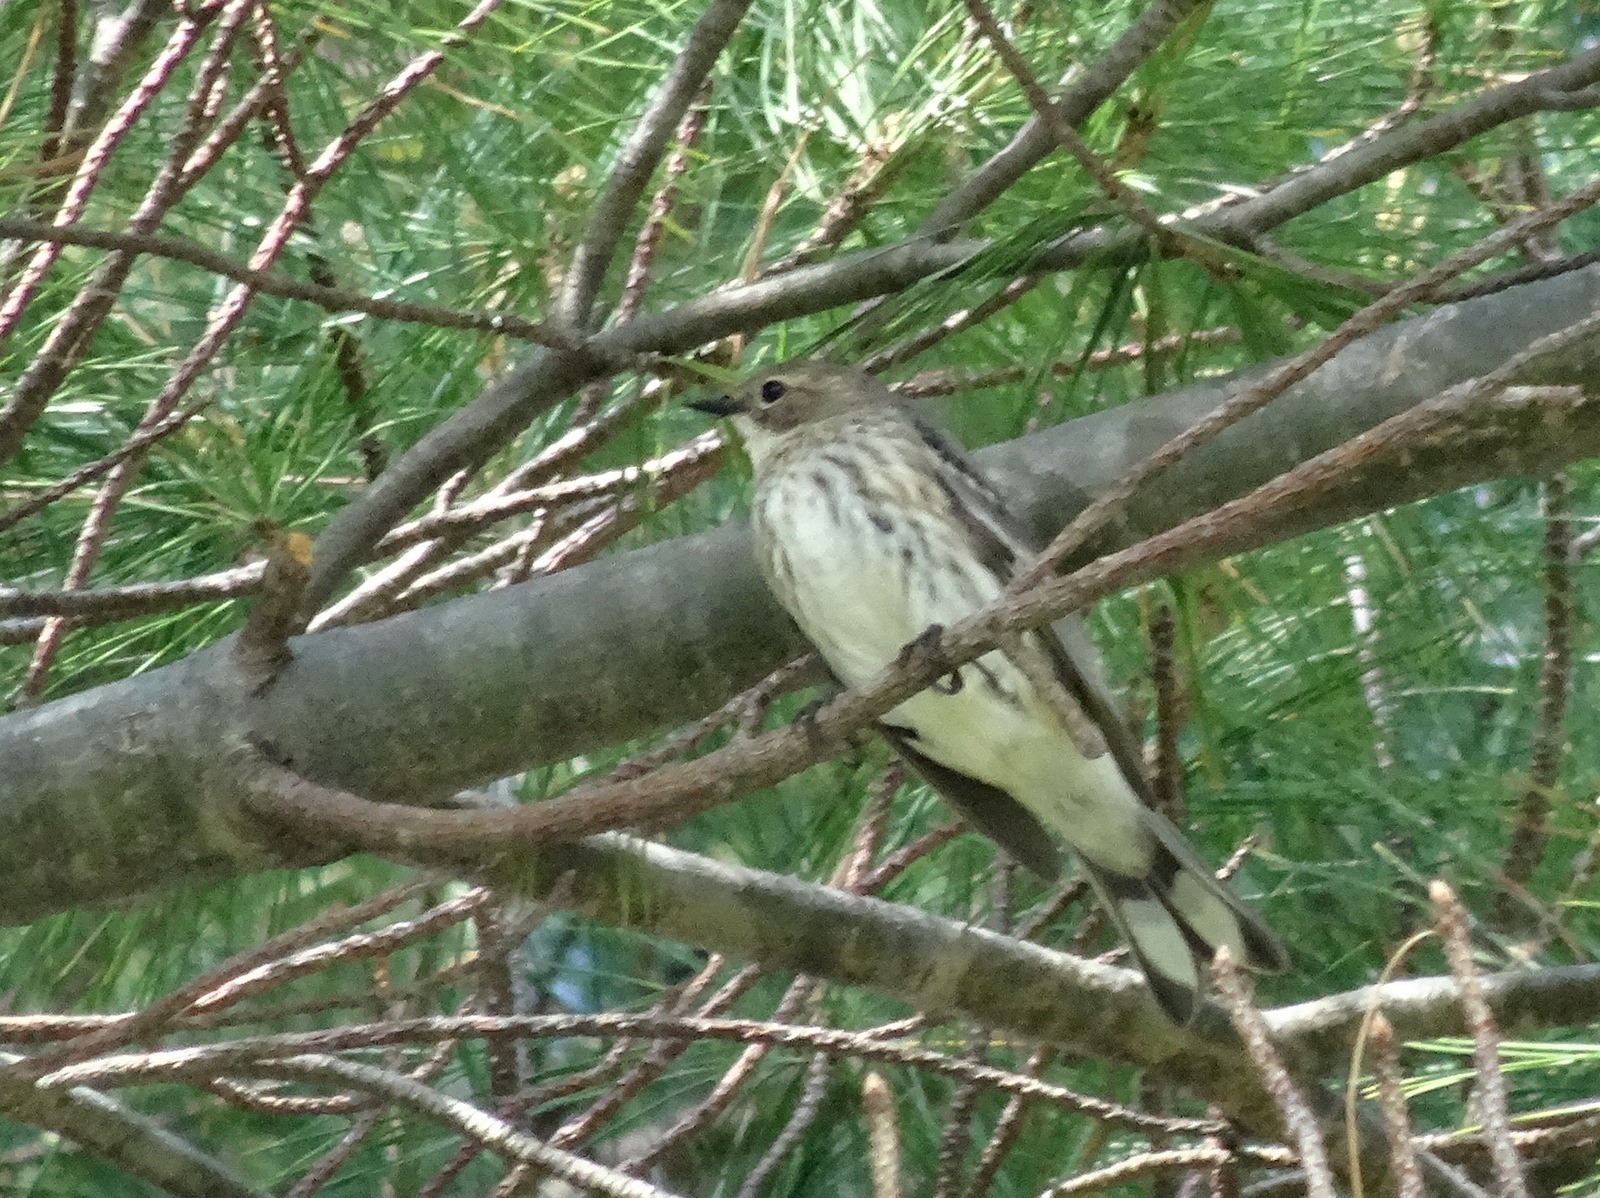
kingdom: Animalia
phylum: Chordata
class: Aves
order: Passeriformes
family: Parulidae
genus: Setophaga
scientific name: Setophaga coronata
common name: Myrtle warbler
